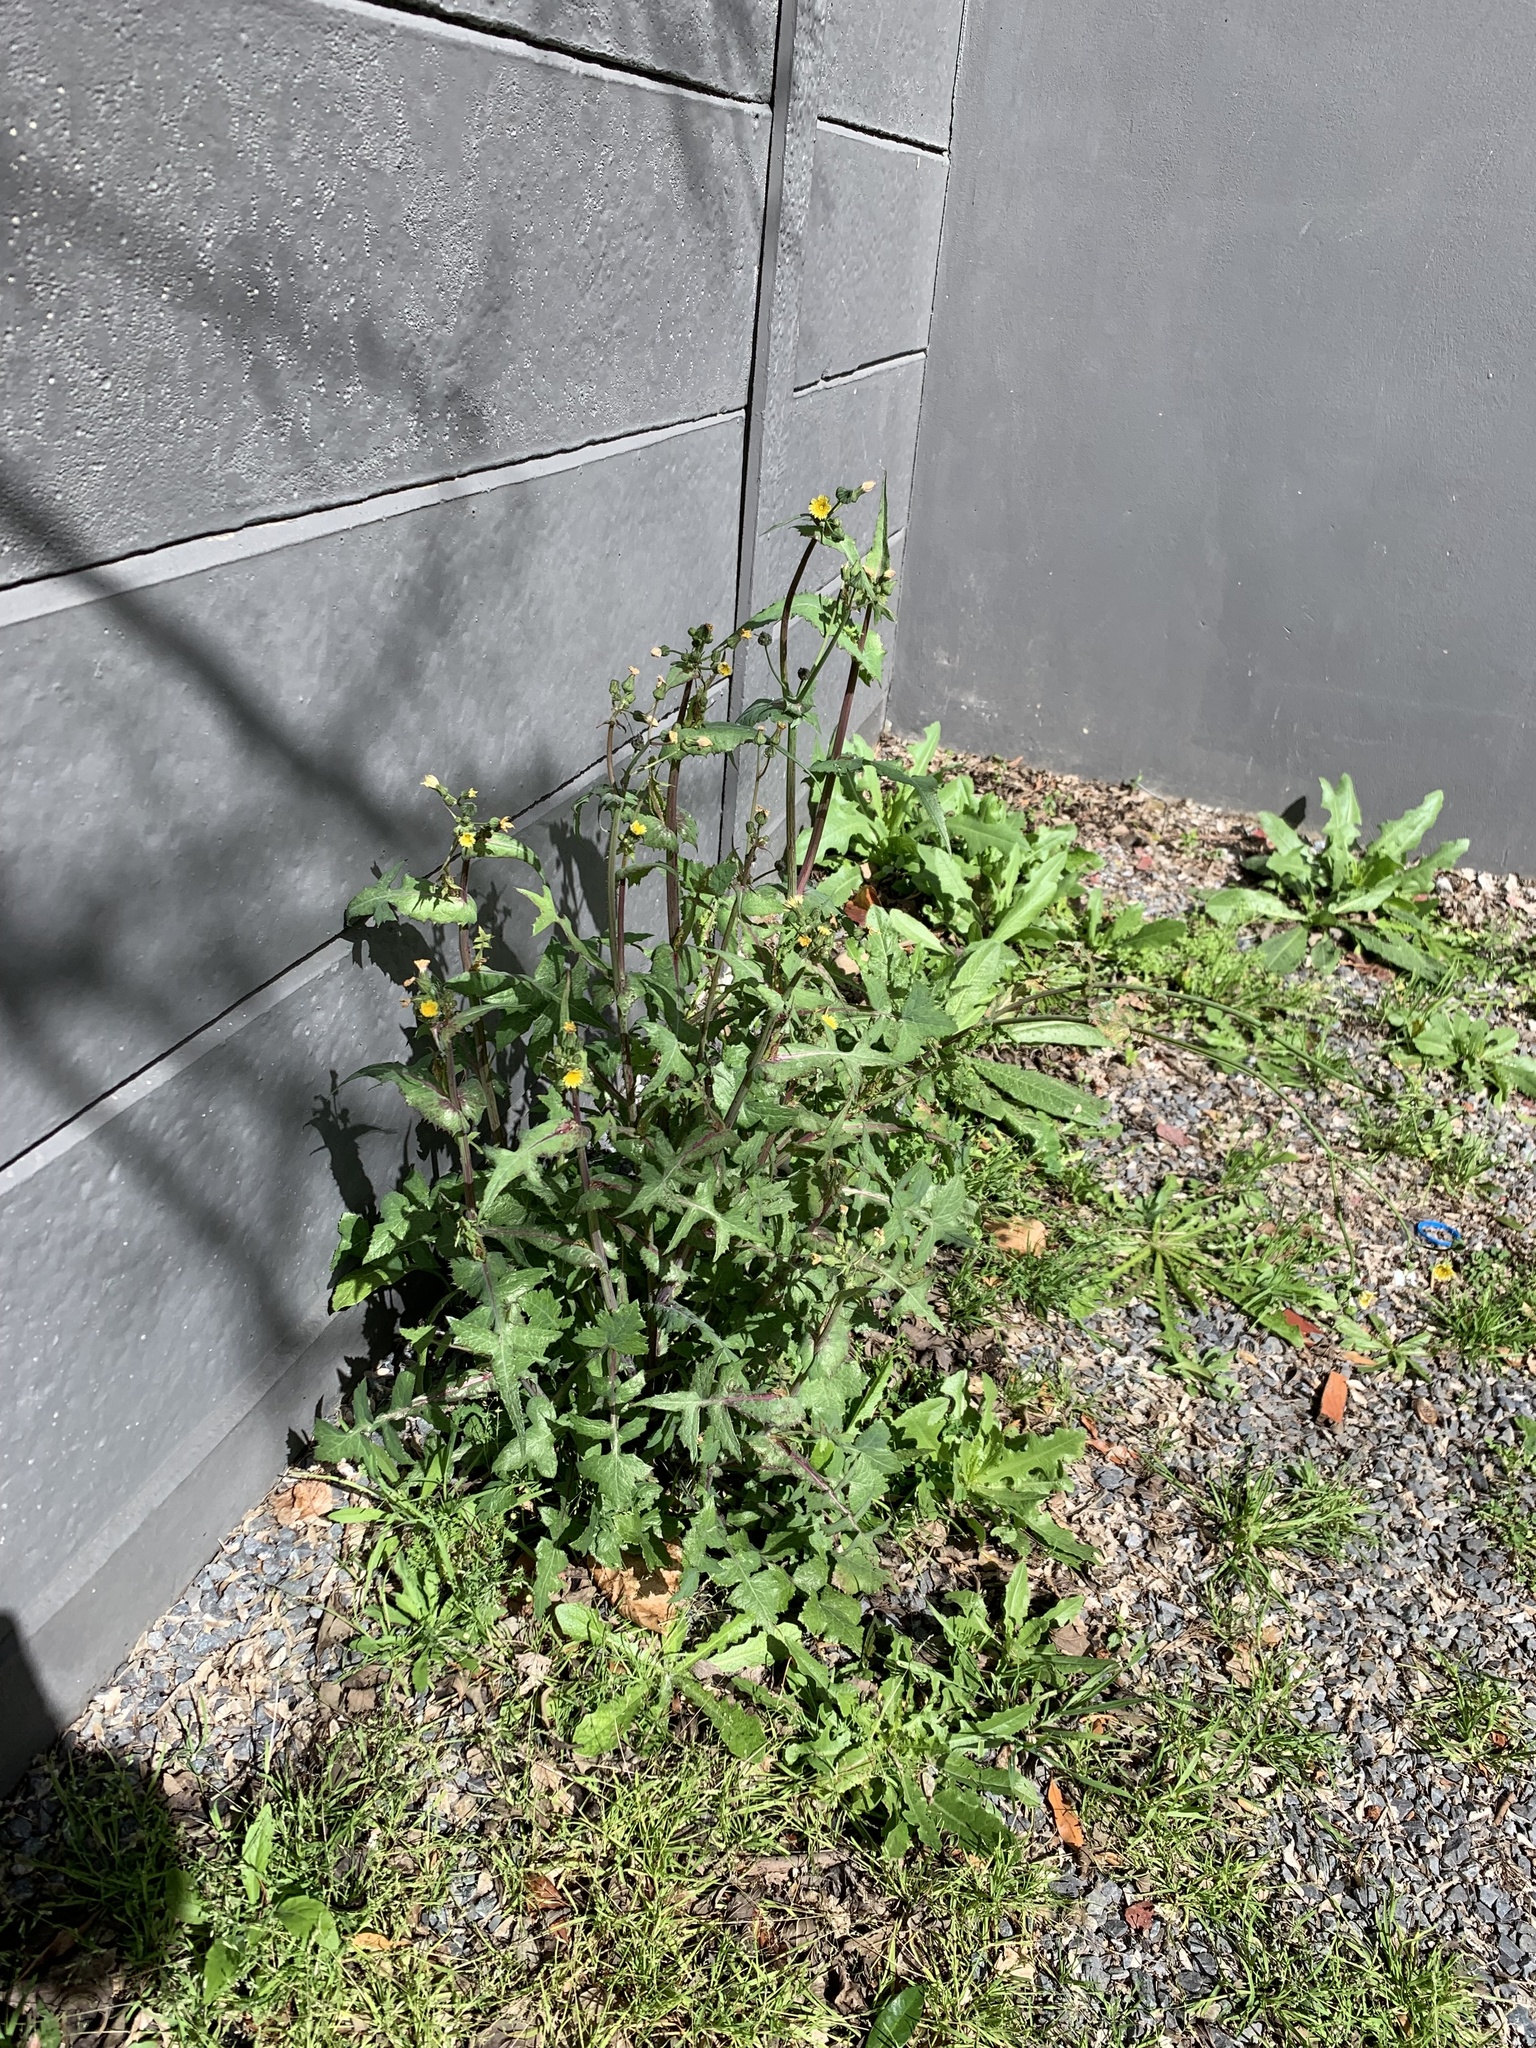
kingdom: Plantae
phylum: Tracheophyta
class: Magnoliopsida
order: Asterales
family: Asteraceae
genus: Sonchus
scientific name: Sonchus oleraceus
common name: Common sowthistle
